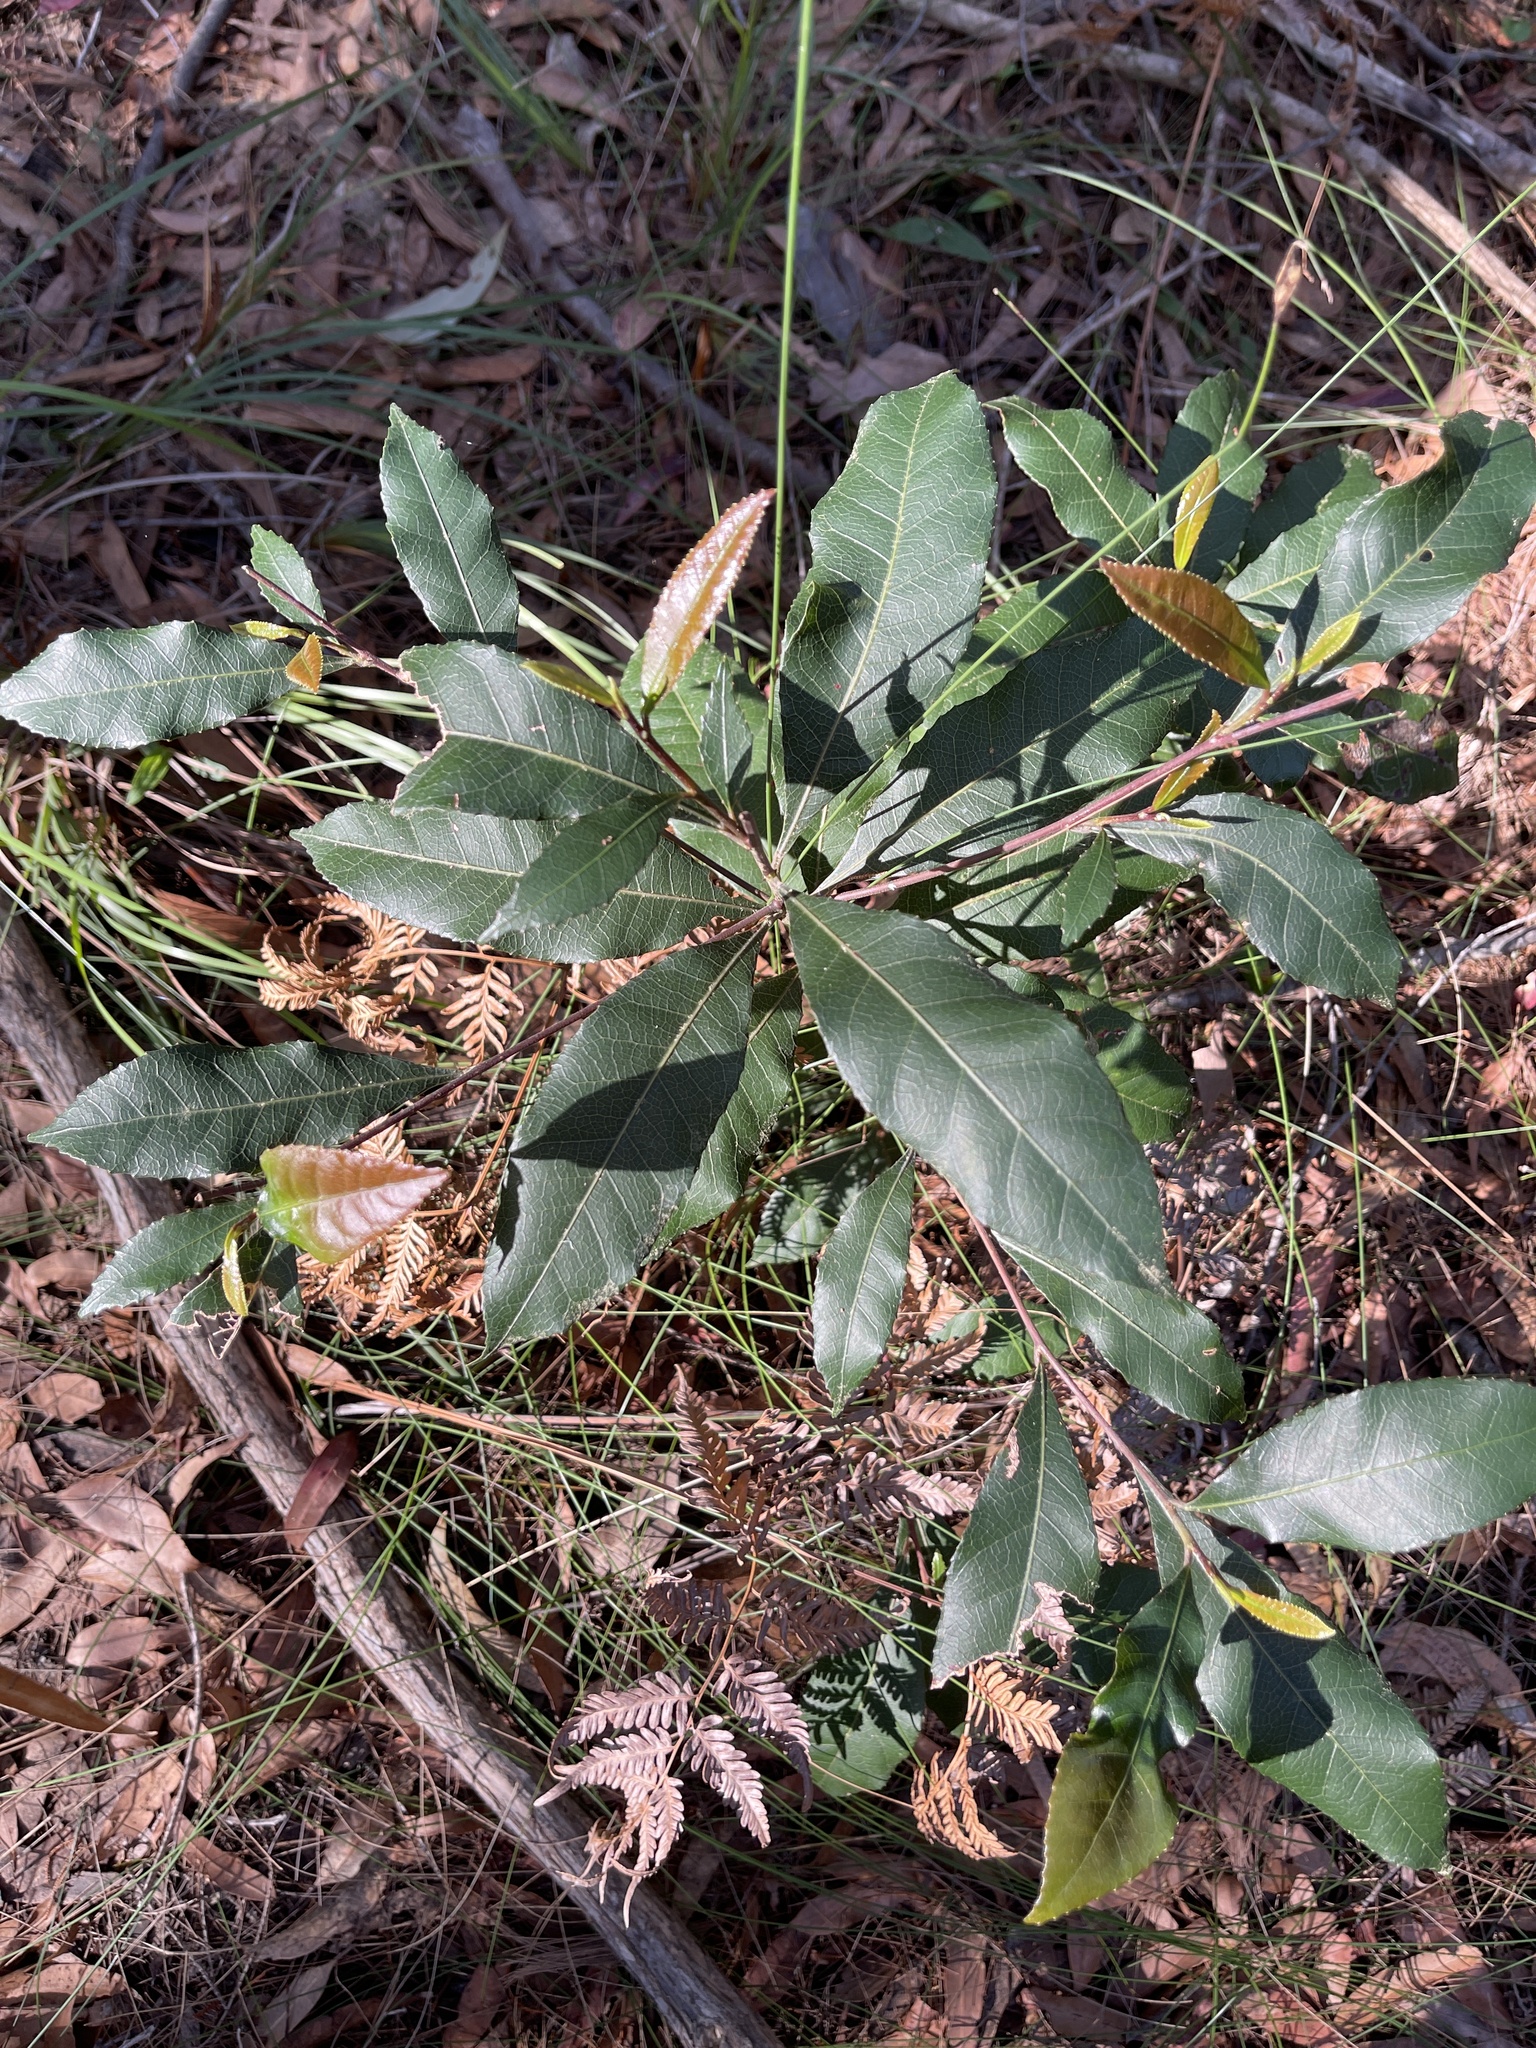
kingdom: Plantae
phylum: Tracheophyta
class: Magnoliopsida
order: Oxalidales
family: Elaeocarpaceae
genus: Elaeocarpus
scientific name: Elaeocarpus reticulatus
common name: Ash quandong
